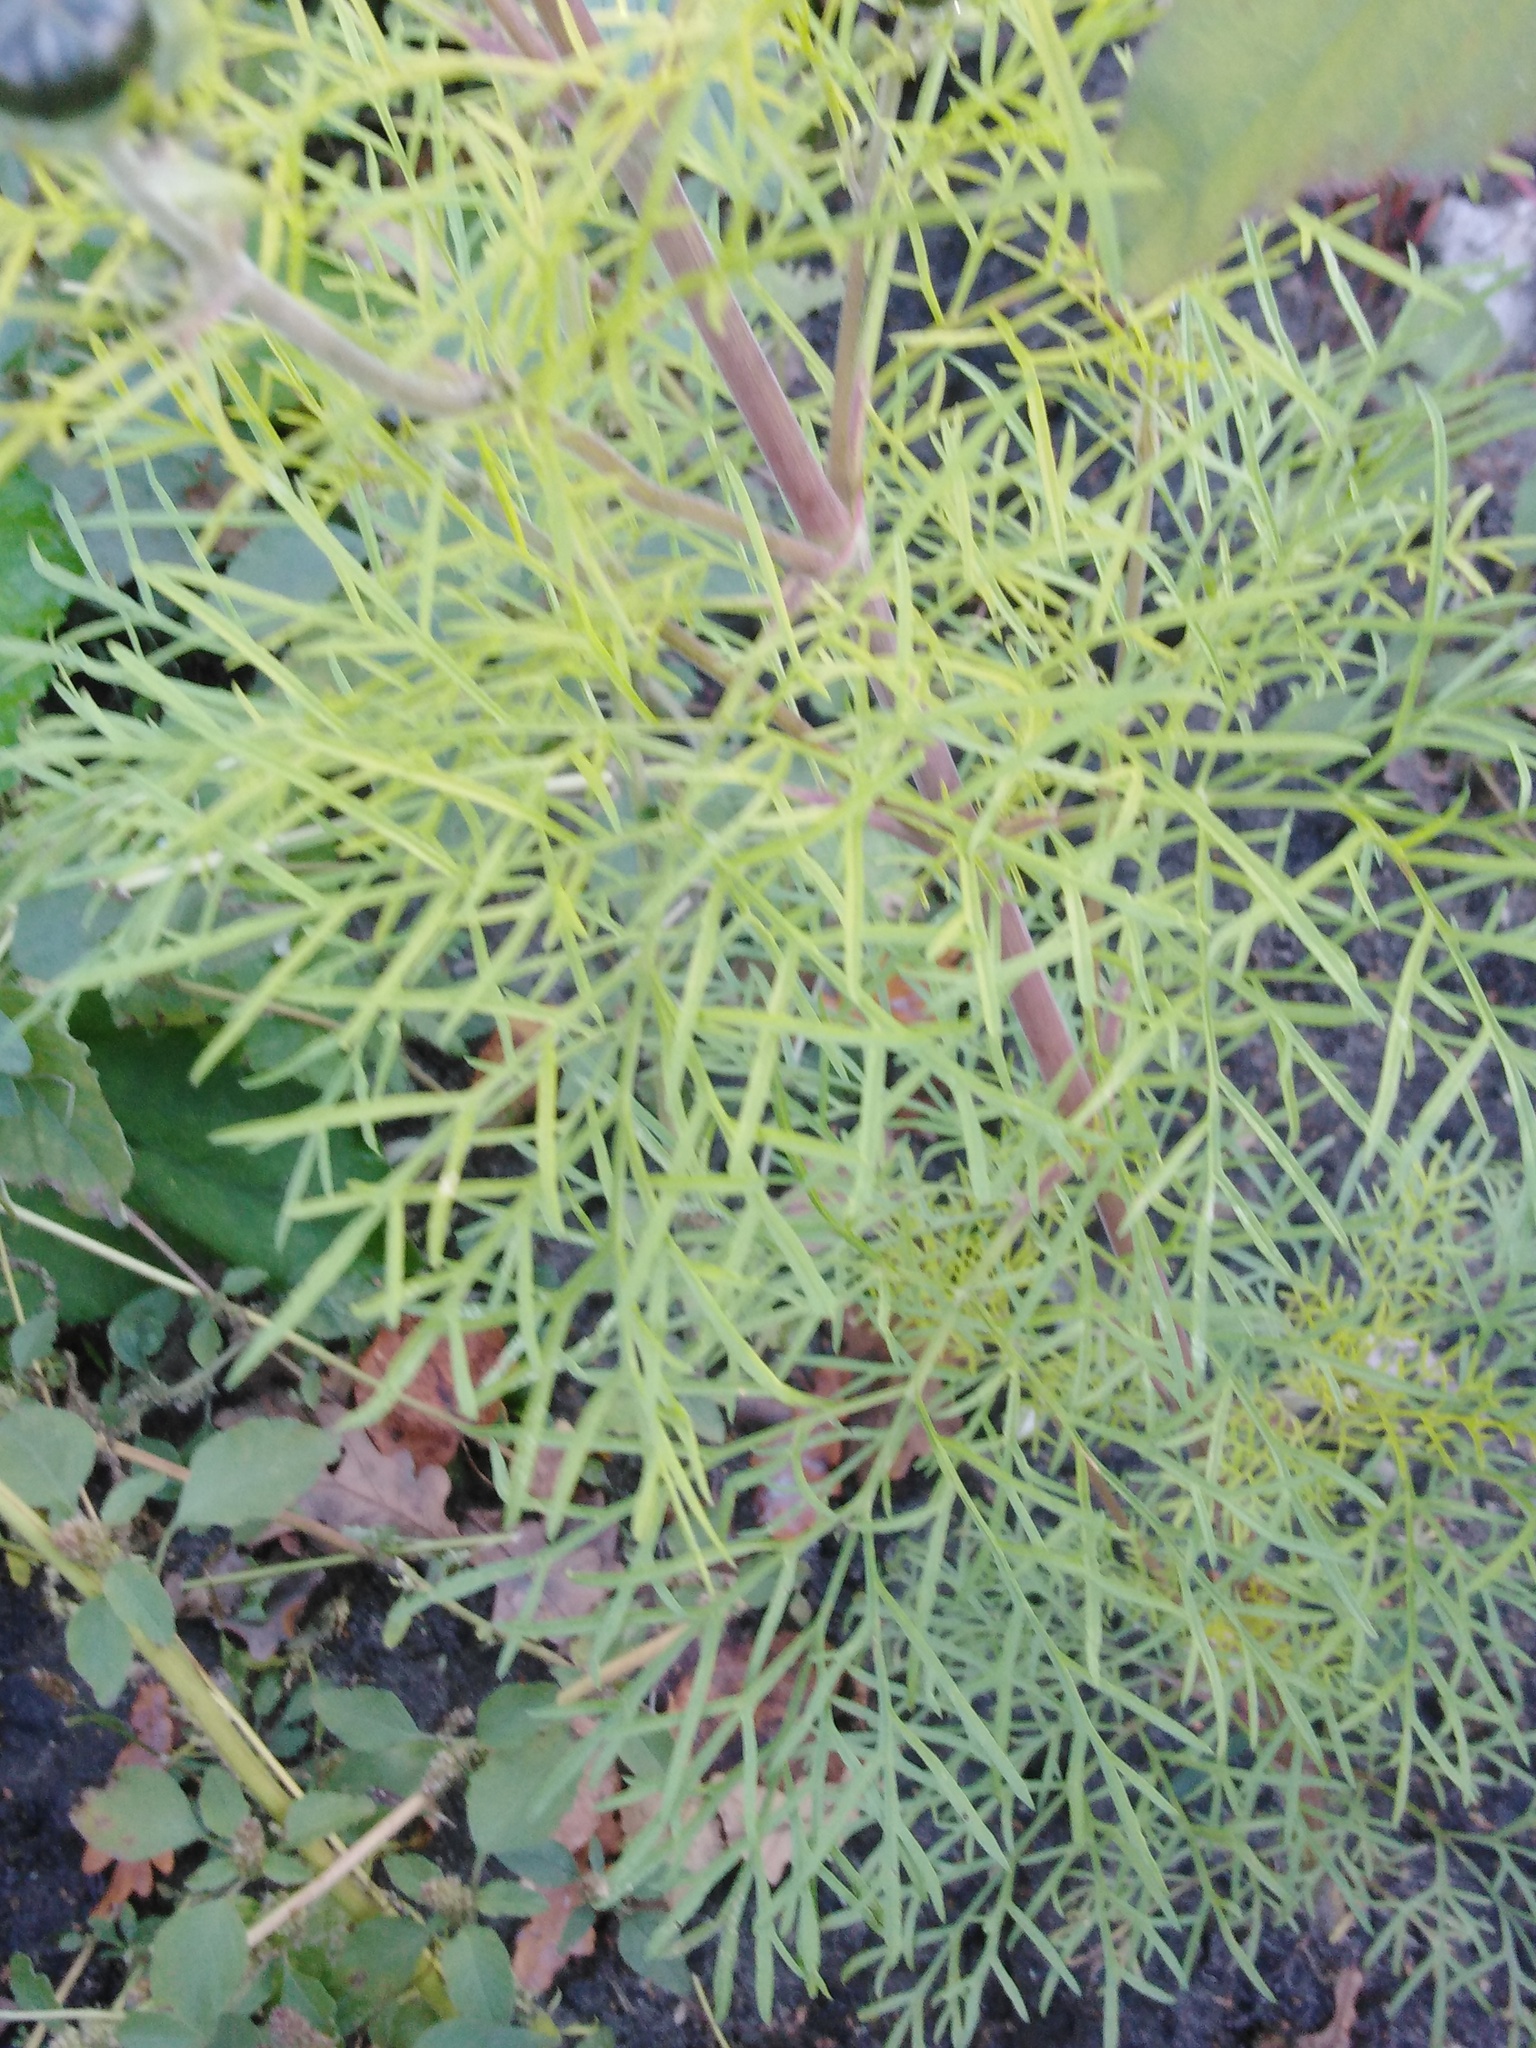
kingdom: Plantae
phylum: Tracheophyta
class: Magnoliopsida
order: Asterales
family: Asteraceae
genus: Cosmos
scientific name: Cosmos bipinnatus
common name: Garden cosmos
